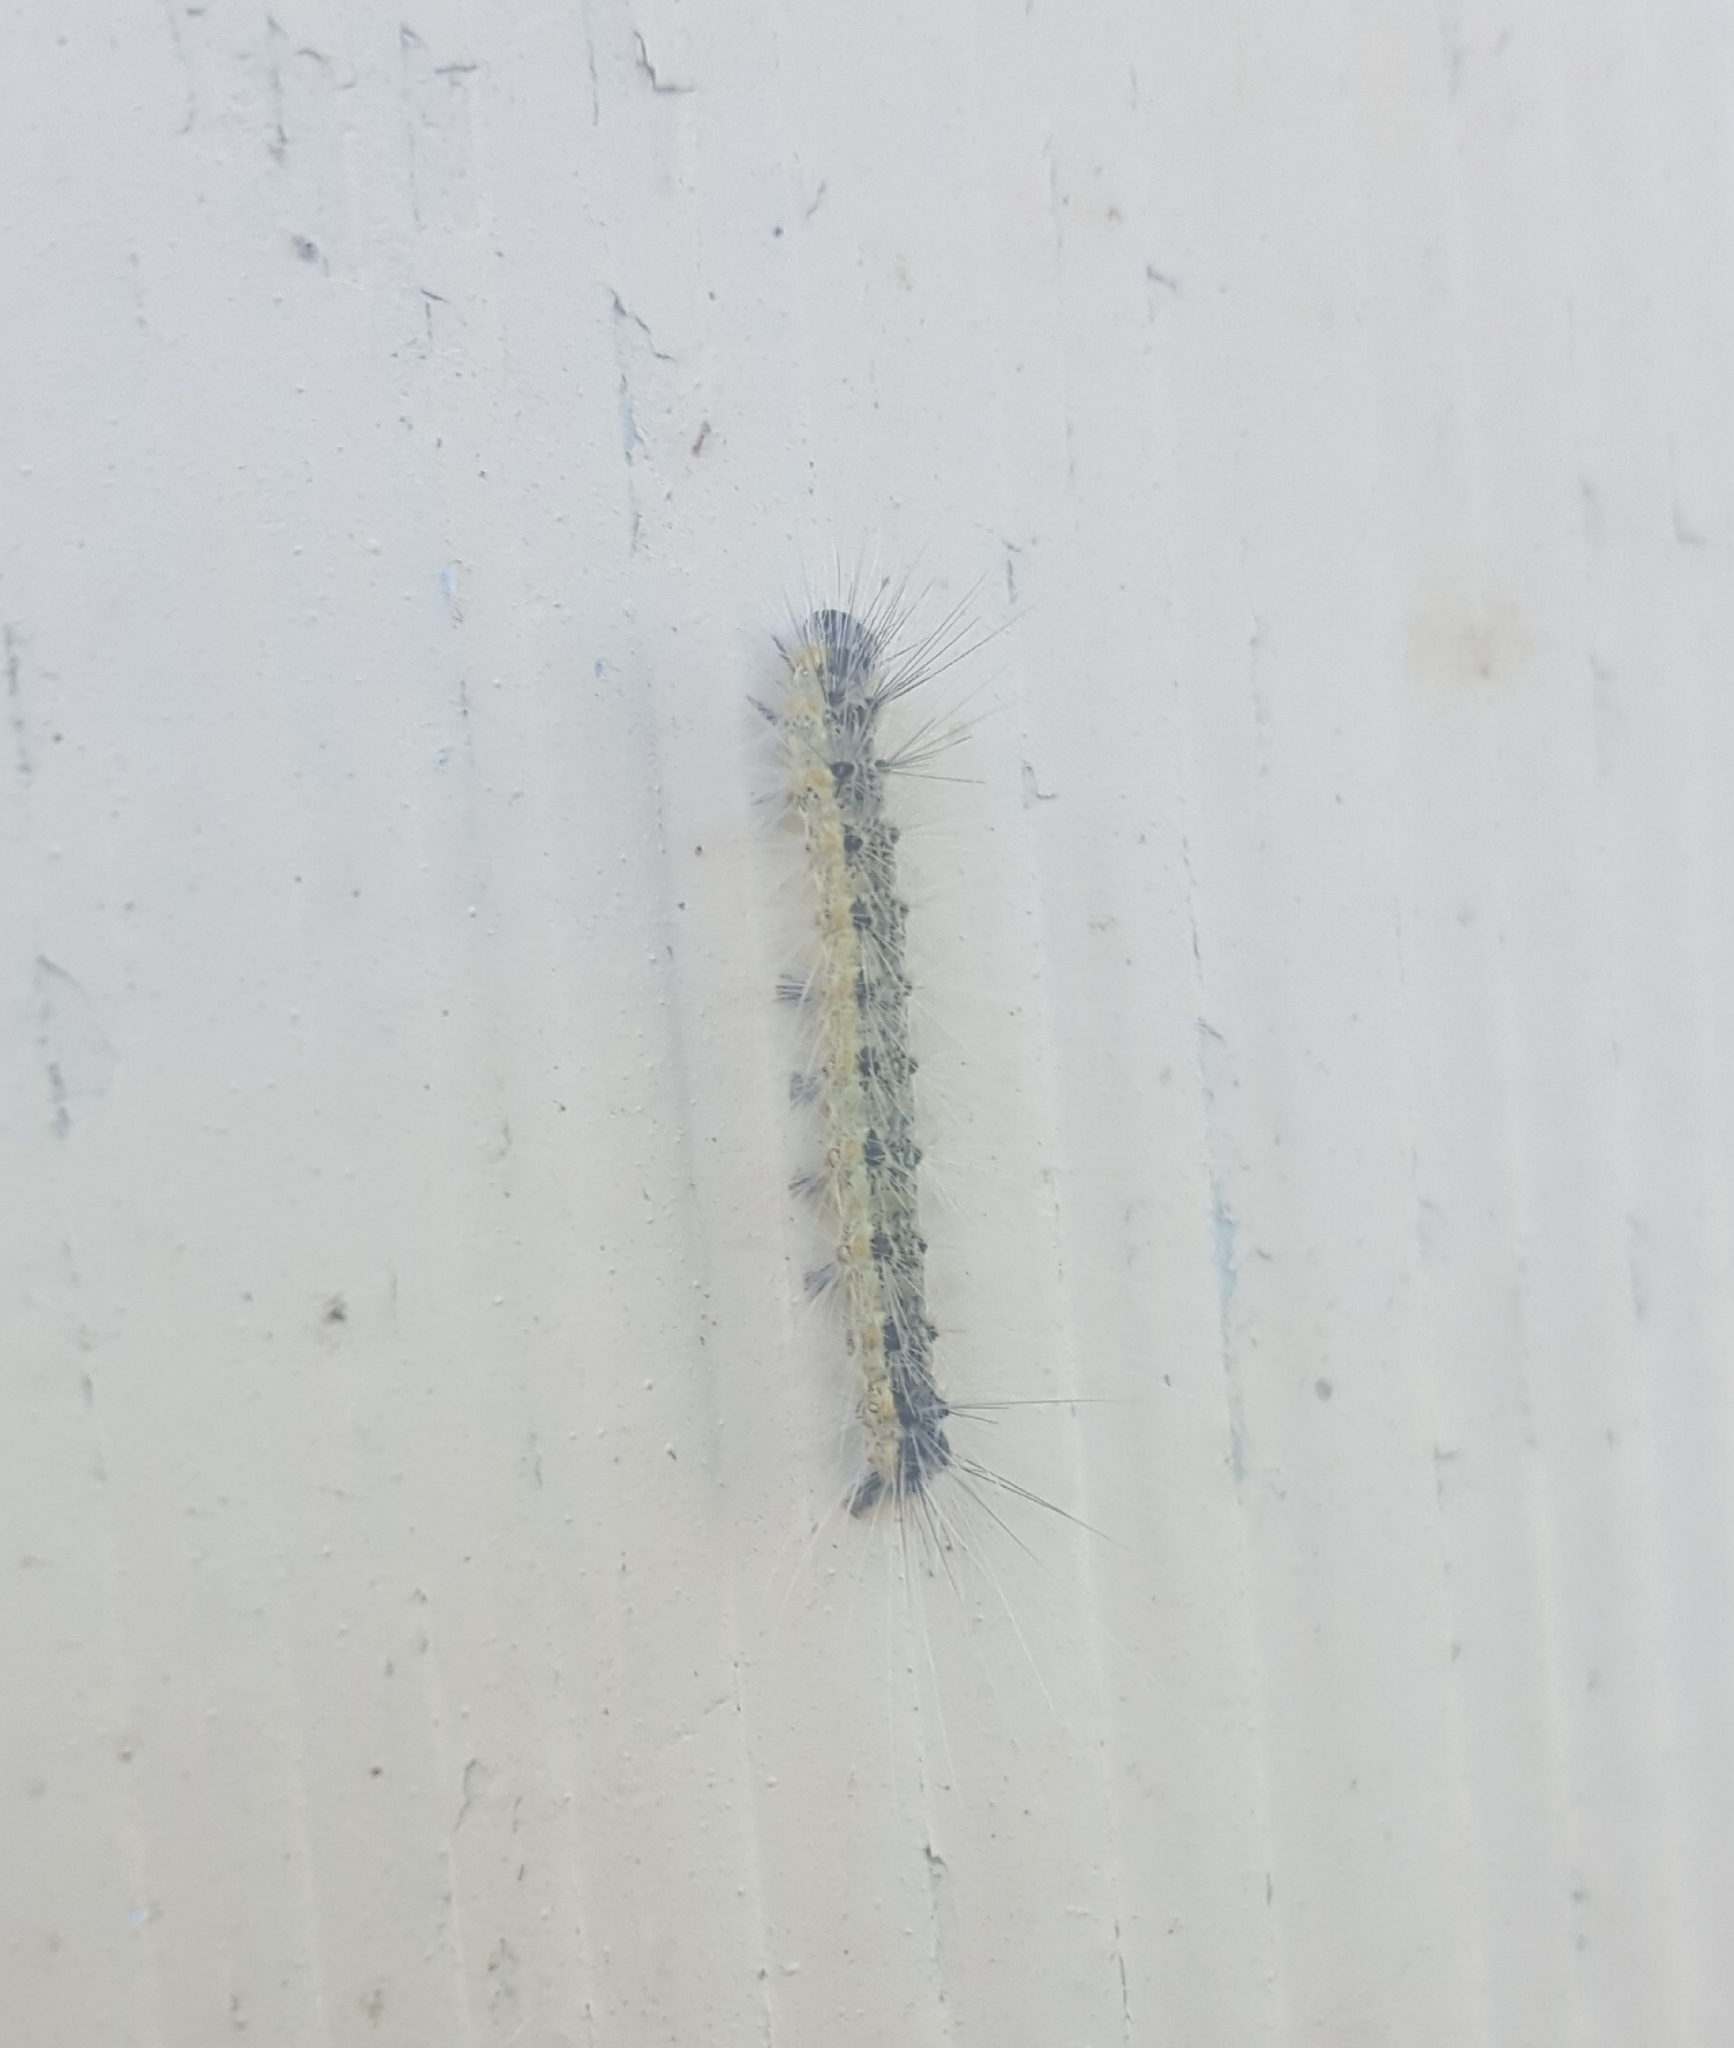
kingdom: Animalia
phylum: Arthropoda
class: Insecta
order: Lepidoptera
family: Erebidae
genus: Hyphantria
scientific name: Hyphantria cunea
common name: American white moth
